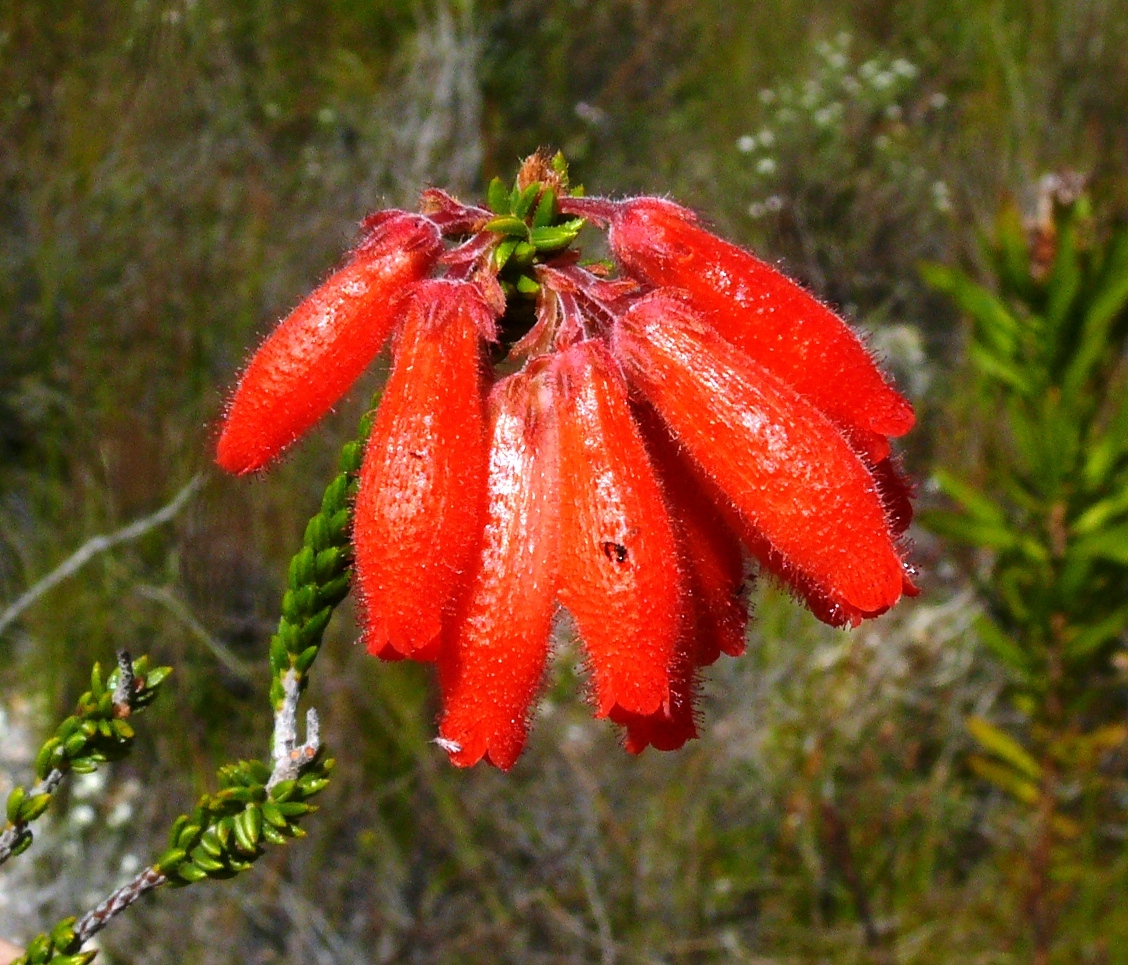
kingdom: Plantae
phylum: Tracheophyta
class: Magnoliopsida
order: Ericales
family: Ericaceae
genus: Erica
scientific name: Erica cerinthoides
